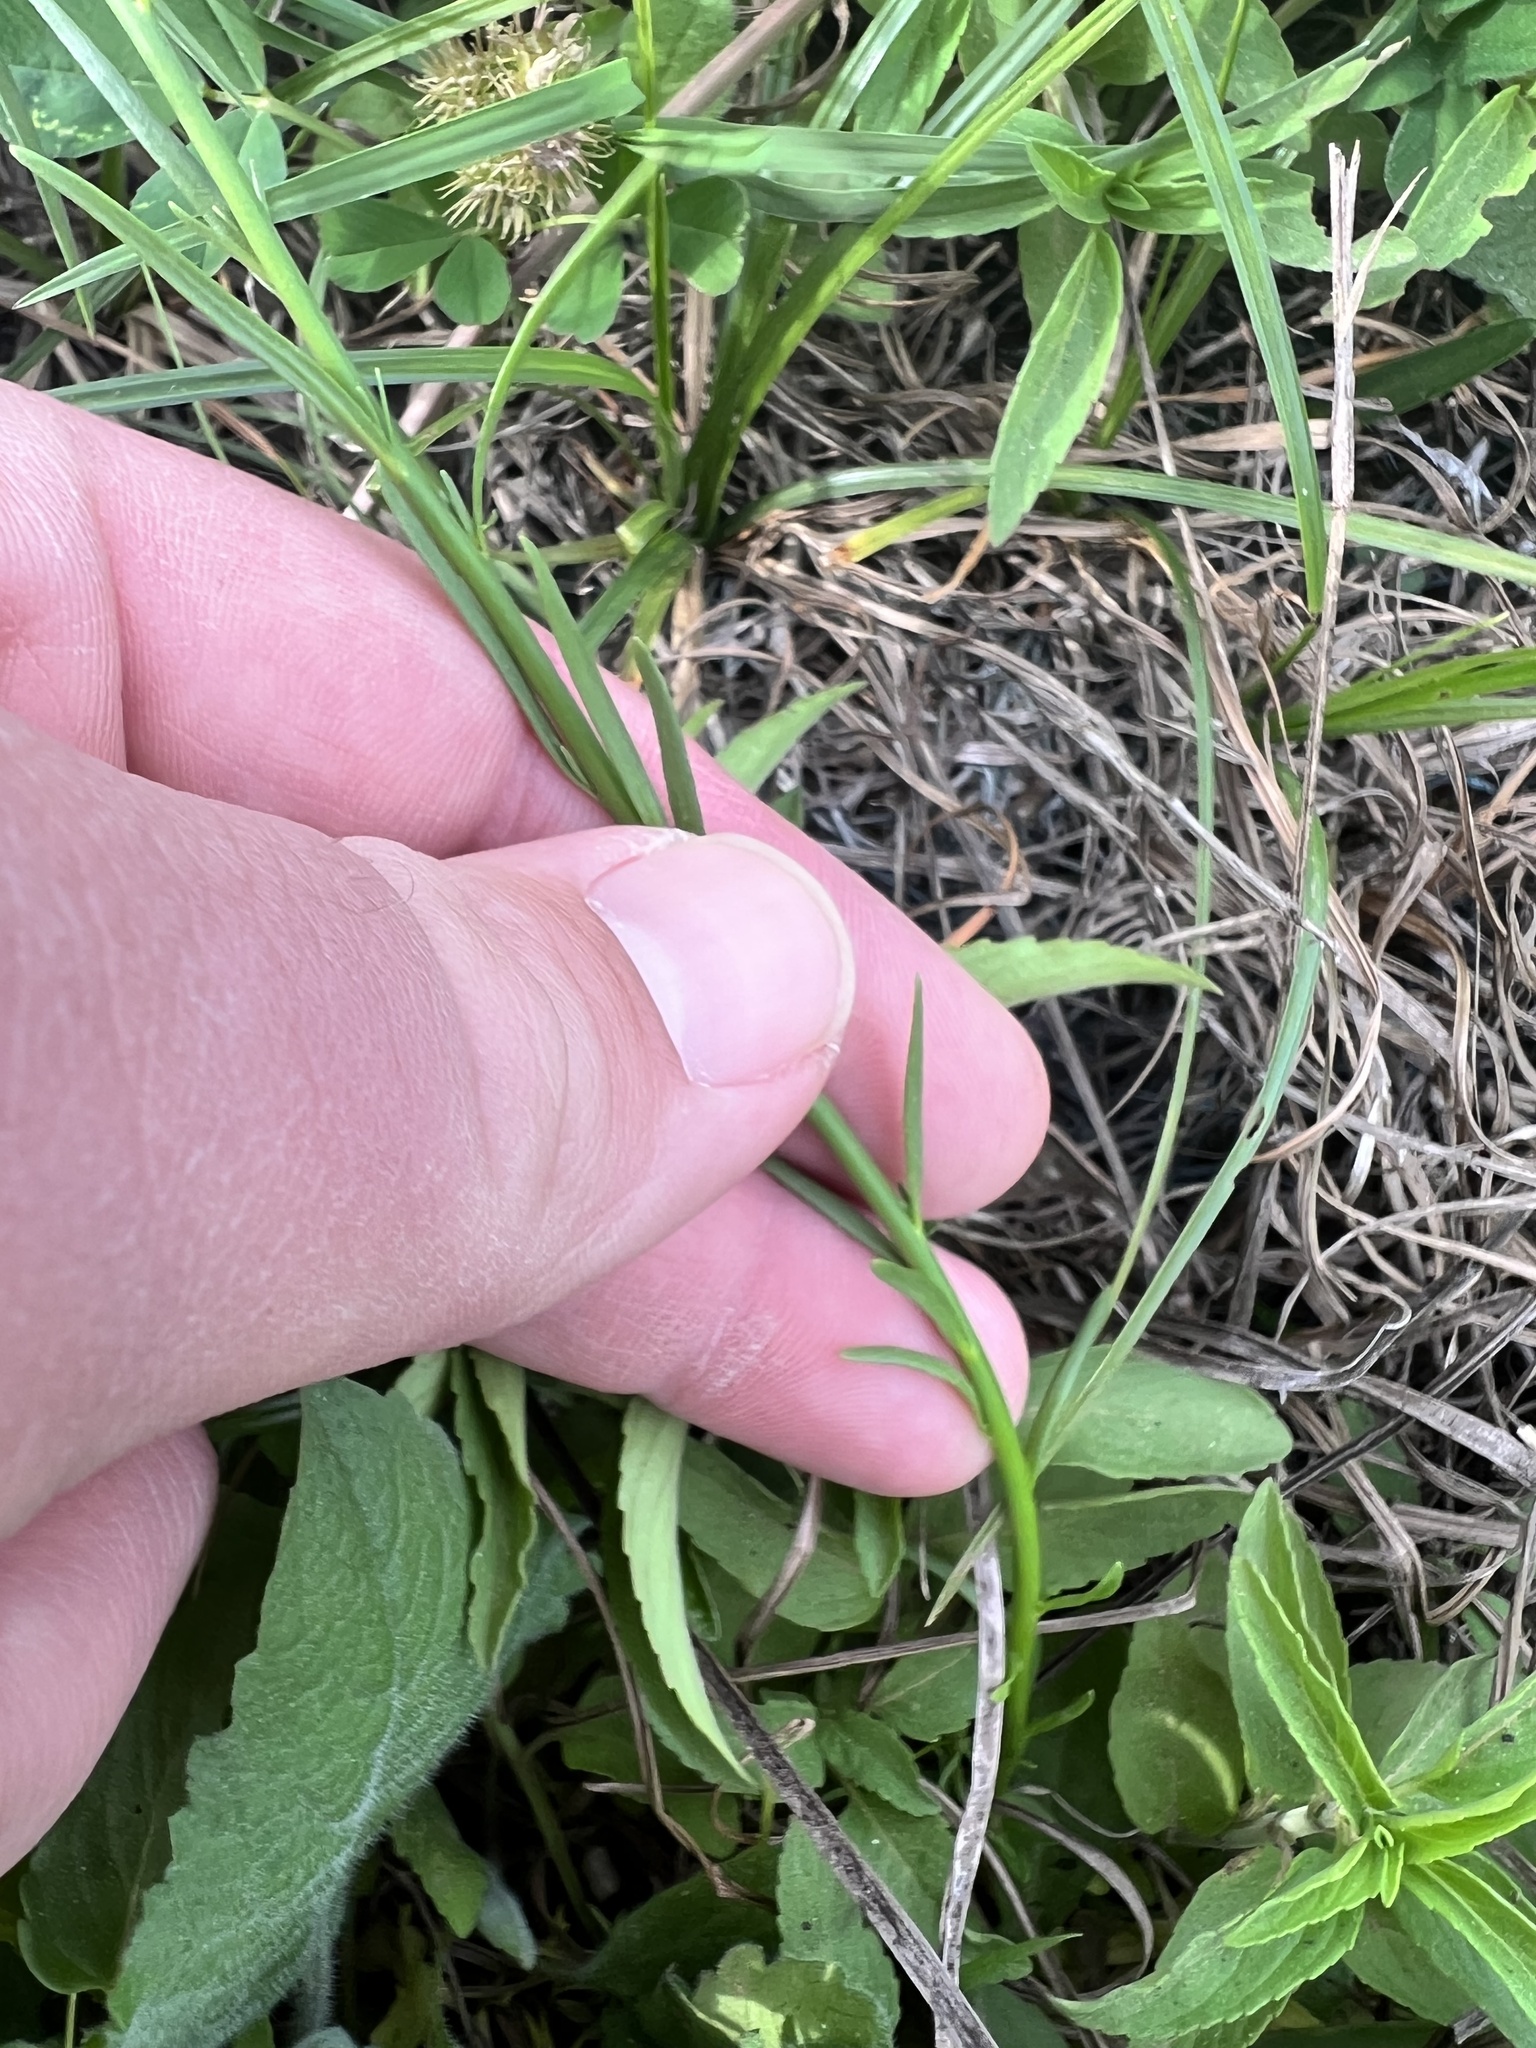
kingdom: Plantae
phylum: Tracheophyta
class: Magnoliopsida
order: Lamiales
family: Plantaginaceae
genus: Nuttallanthus
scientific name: Nuttallanthus texanus
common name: Texas toadflax
